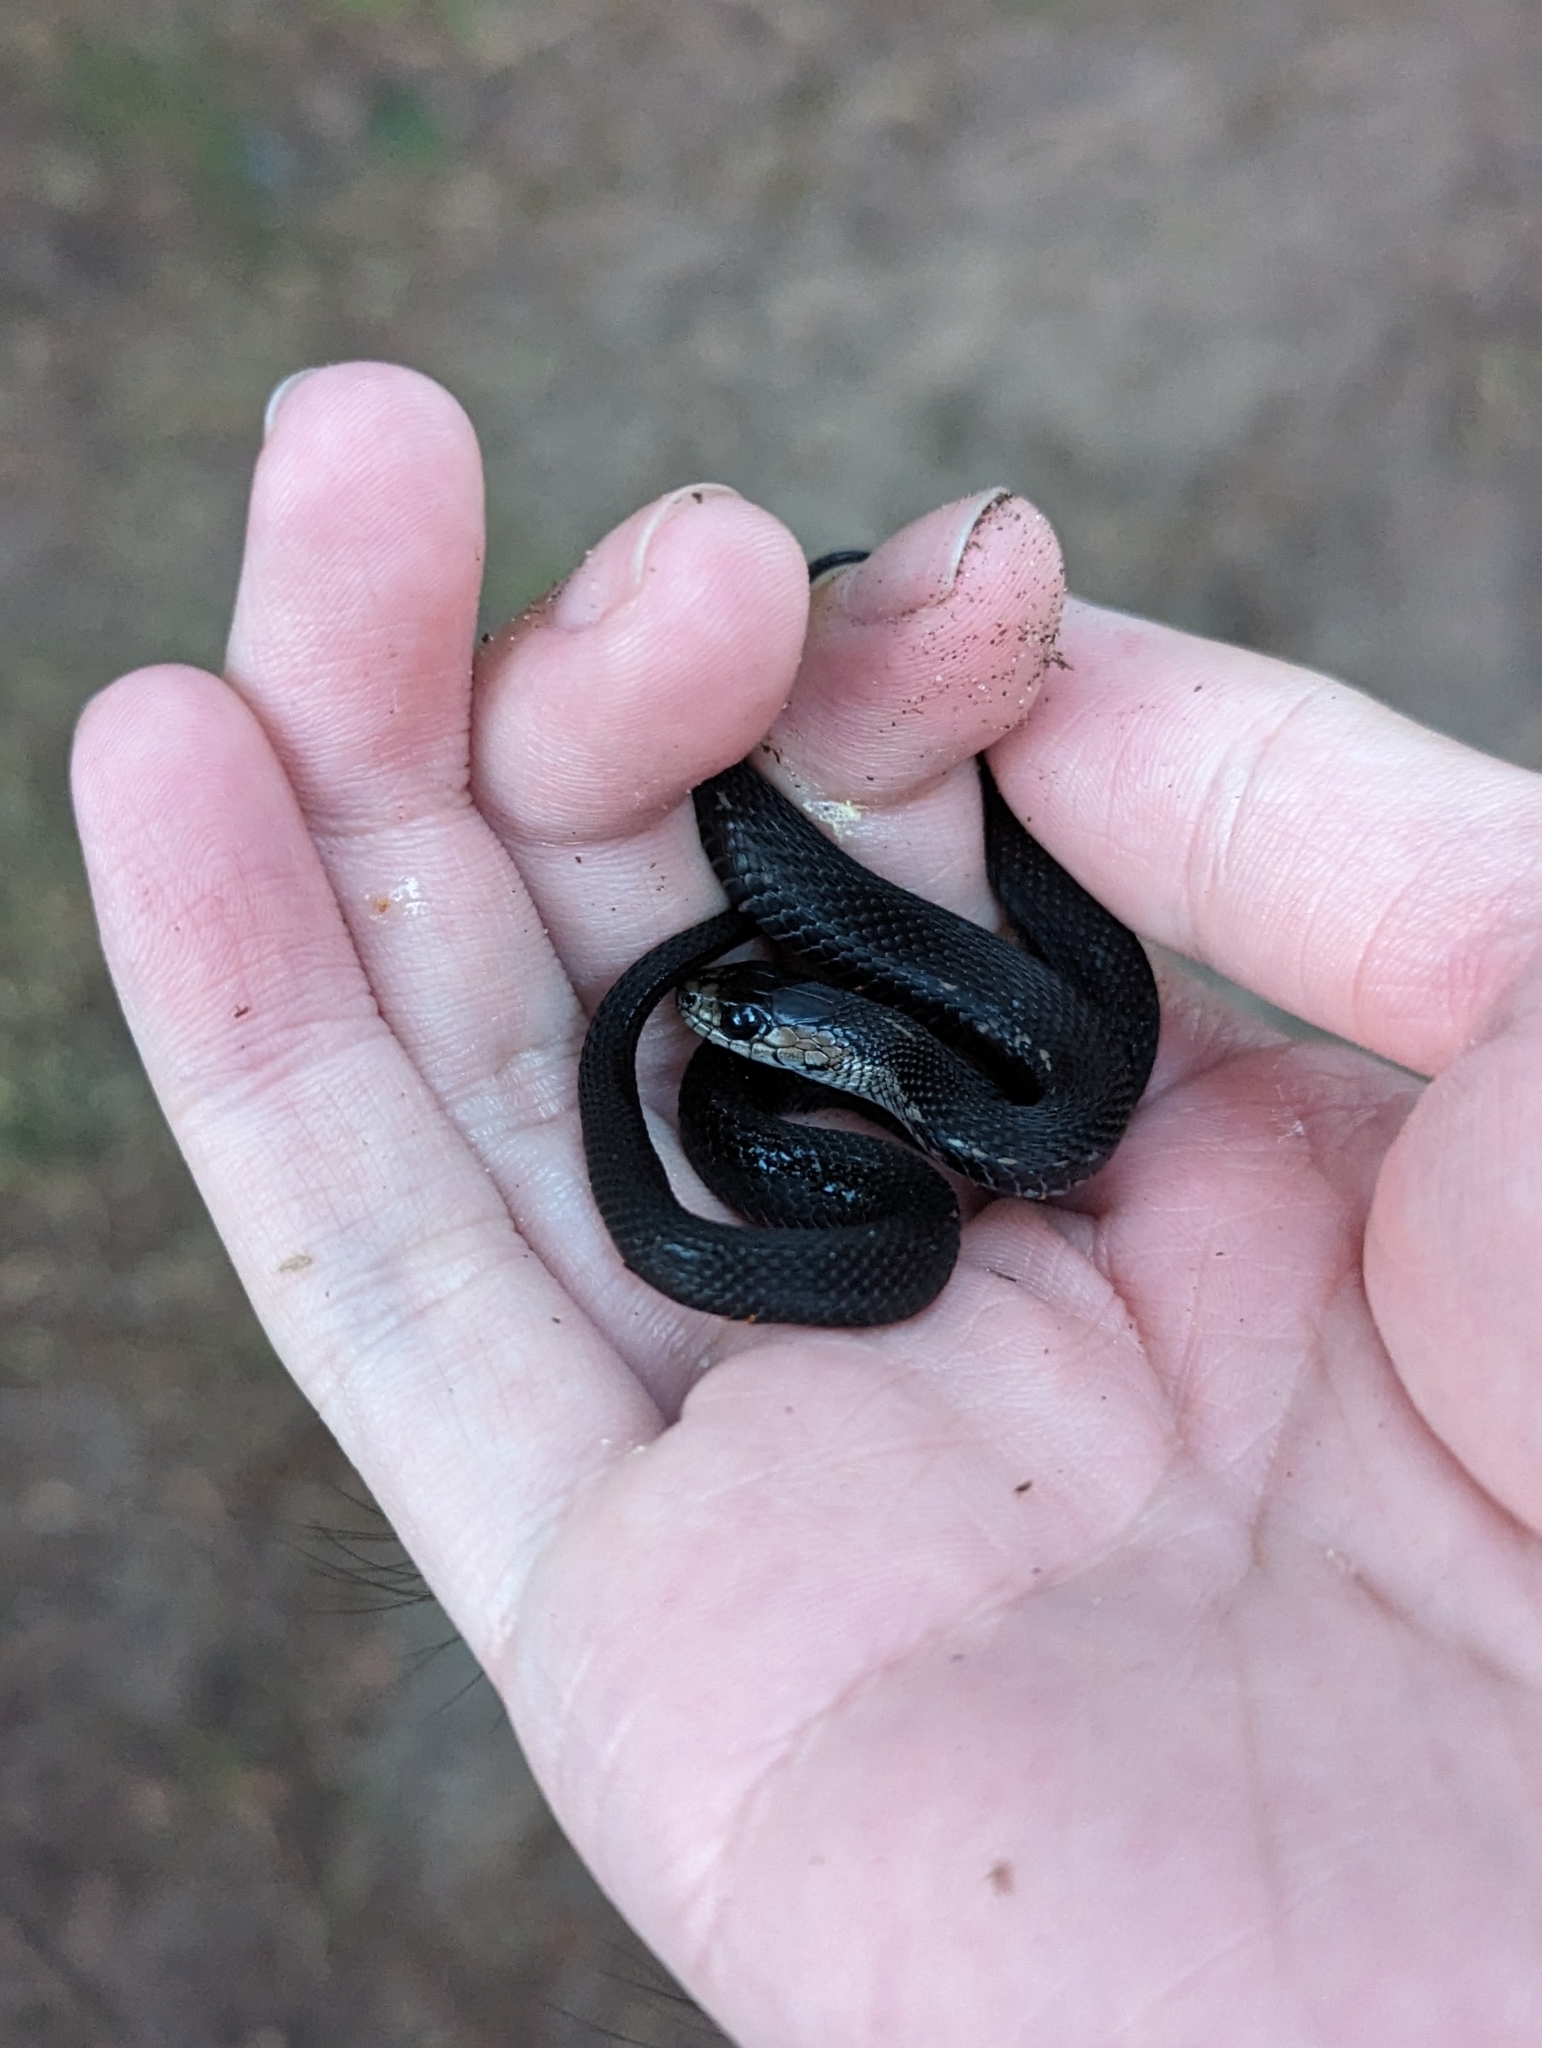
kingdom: Animalia
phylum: Chordata
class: Squamata
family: Colubridae
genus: Thamnophis
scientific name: Thamnophis sirtalis
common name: Common garter snake
